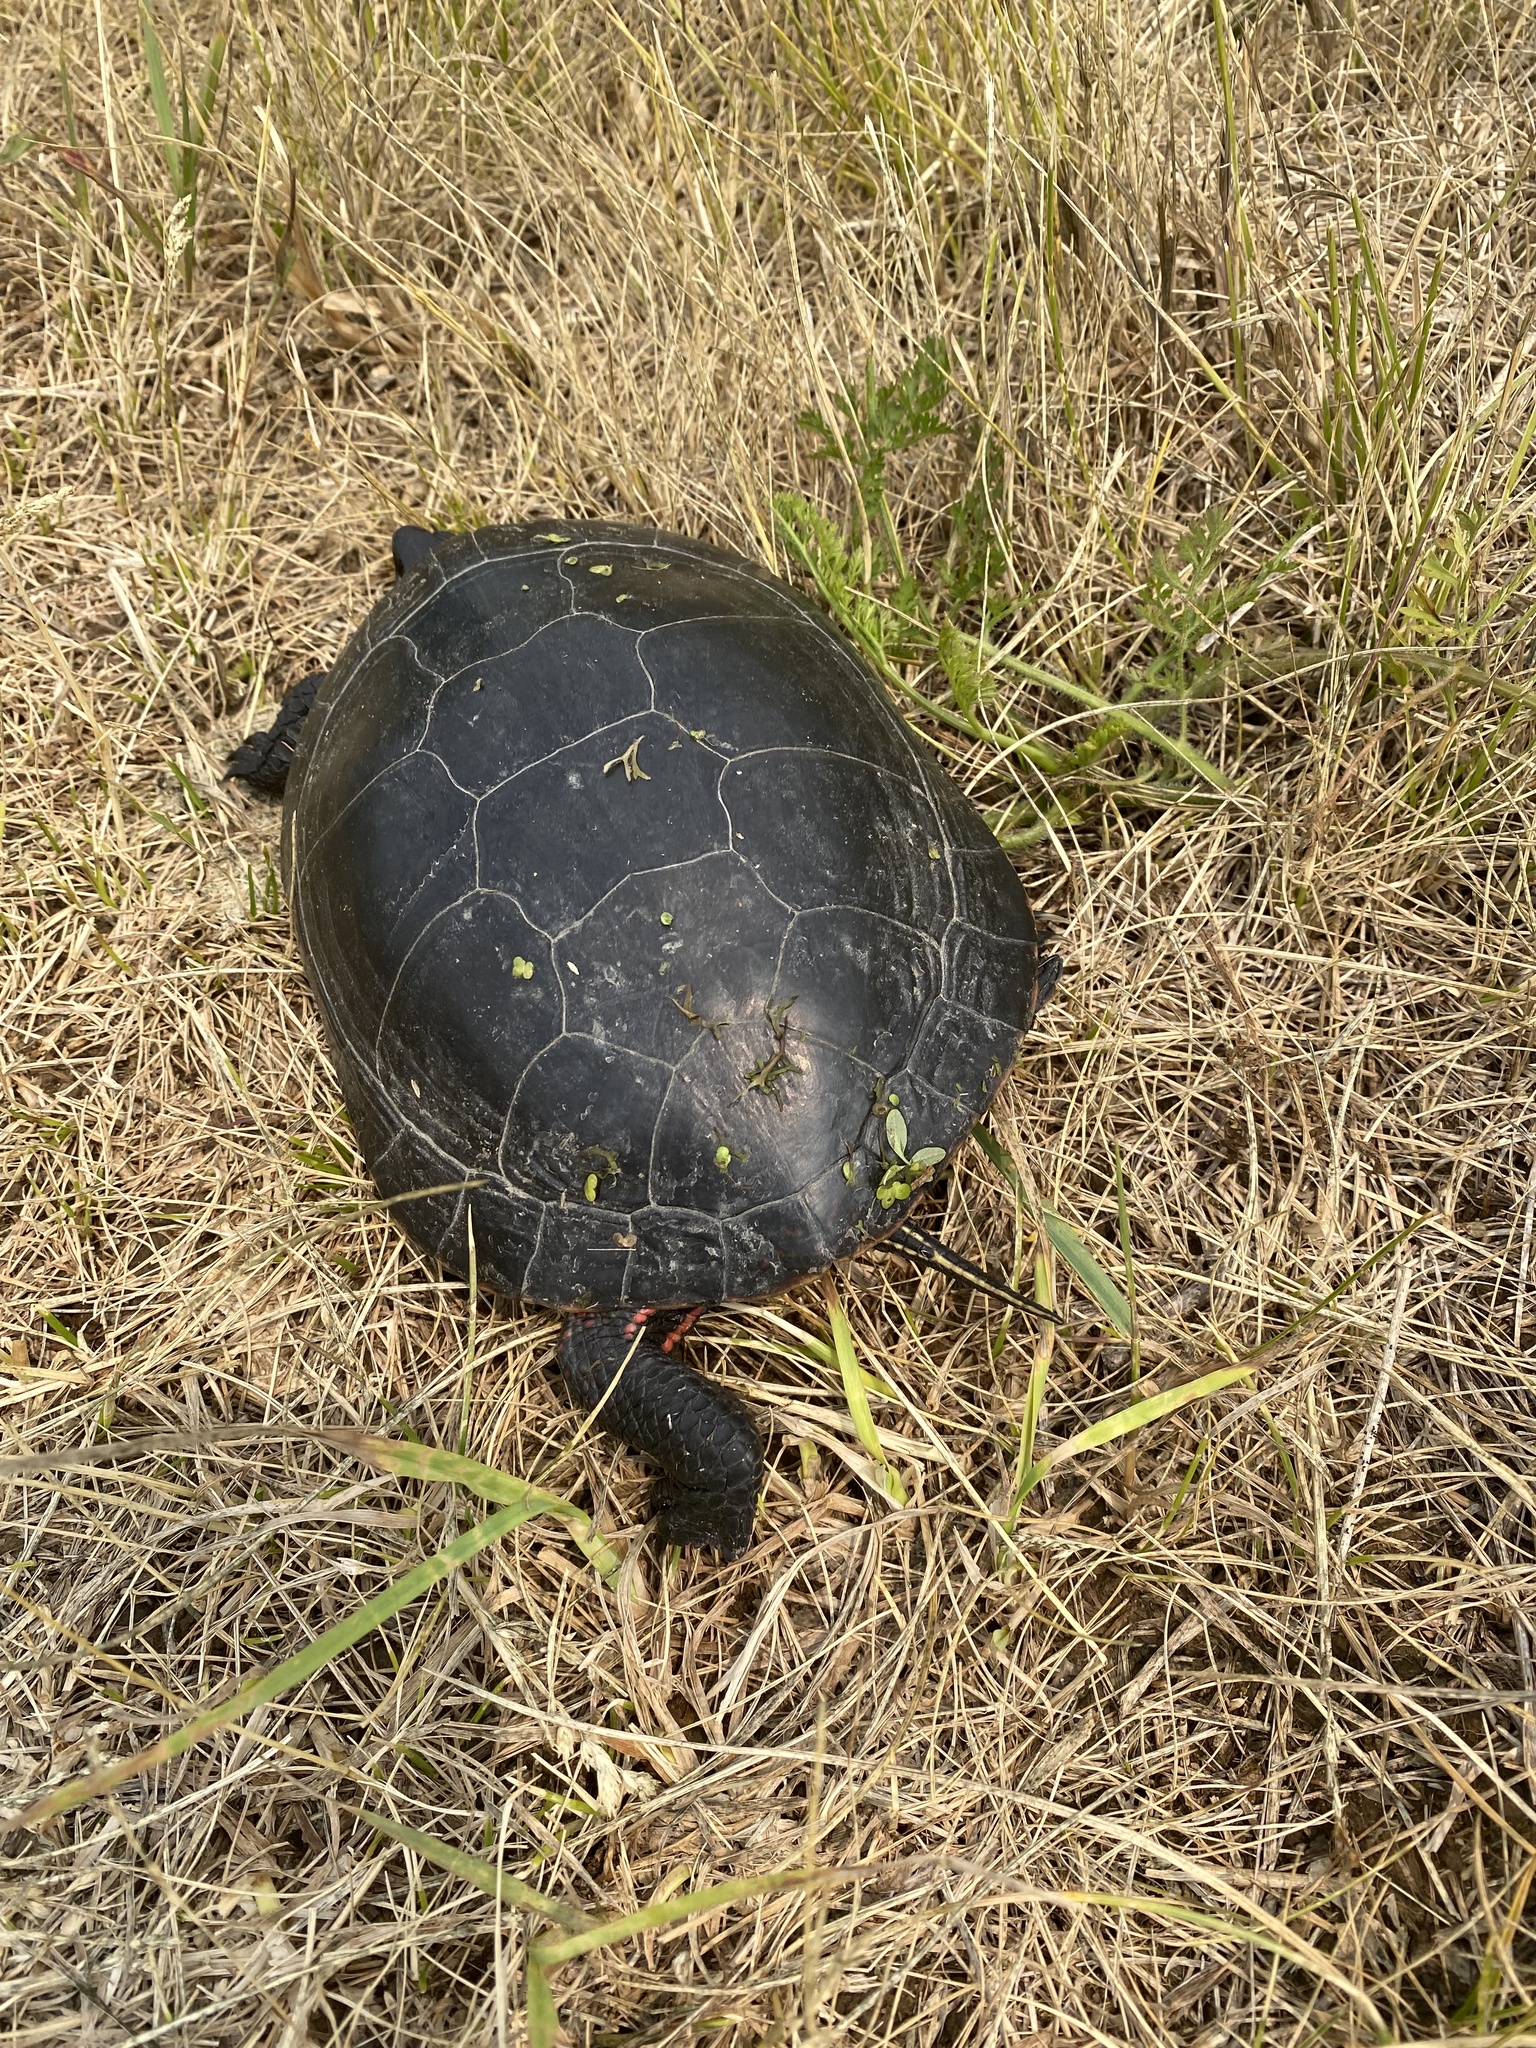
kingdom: Animalia
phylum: Chordata
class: Testudines
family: Emydidae
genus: Chrysemys
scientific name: Chrysemys picta
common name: Painted turtle
